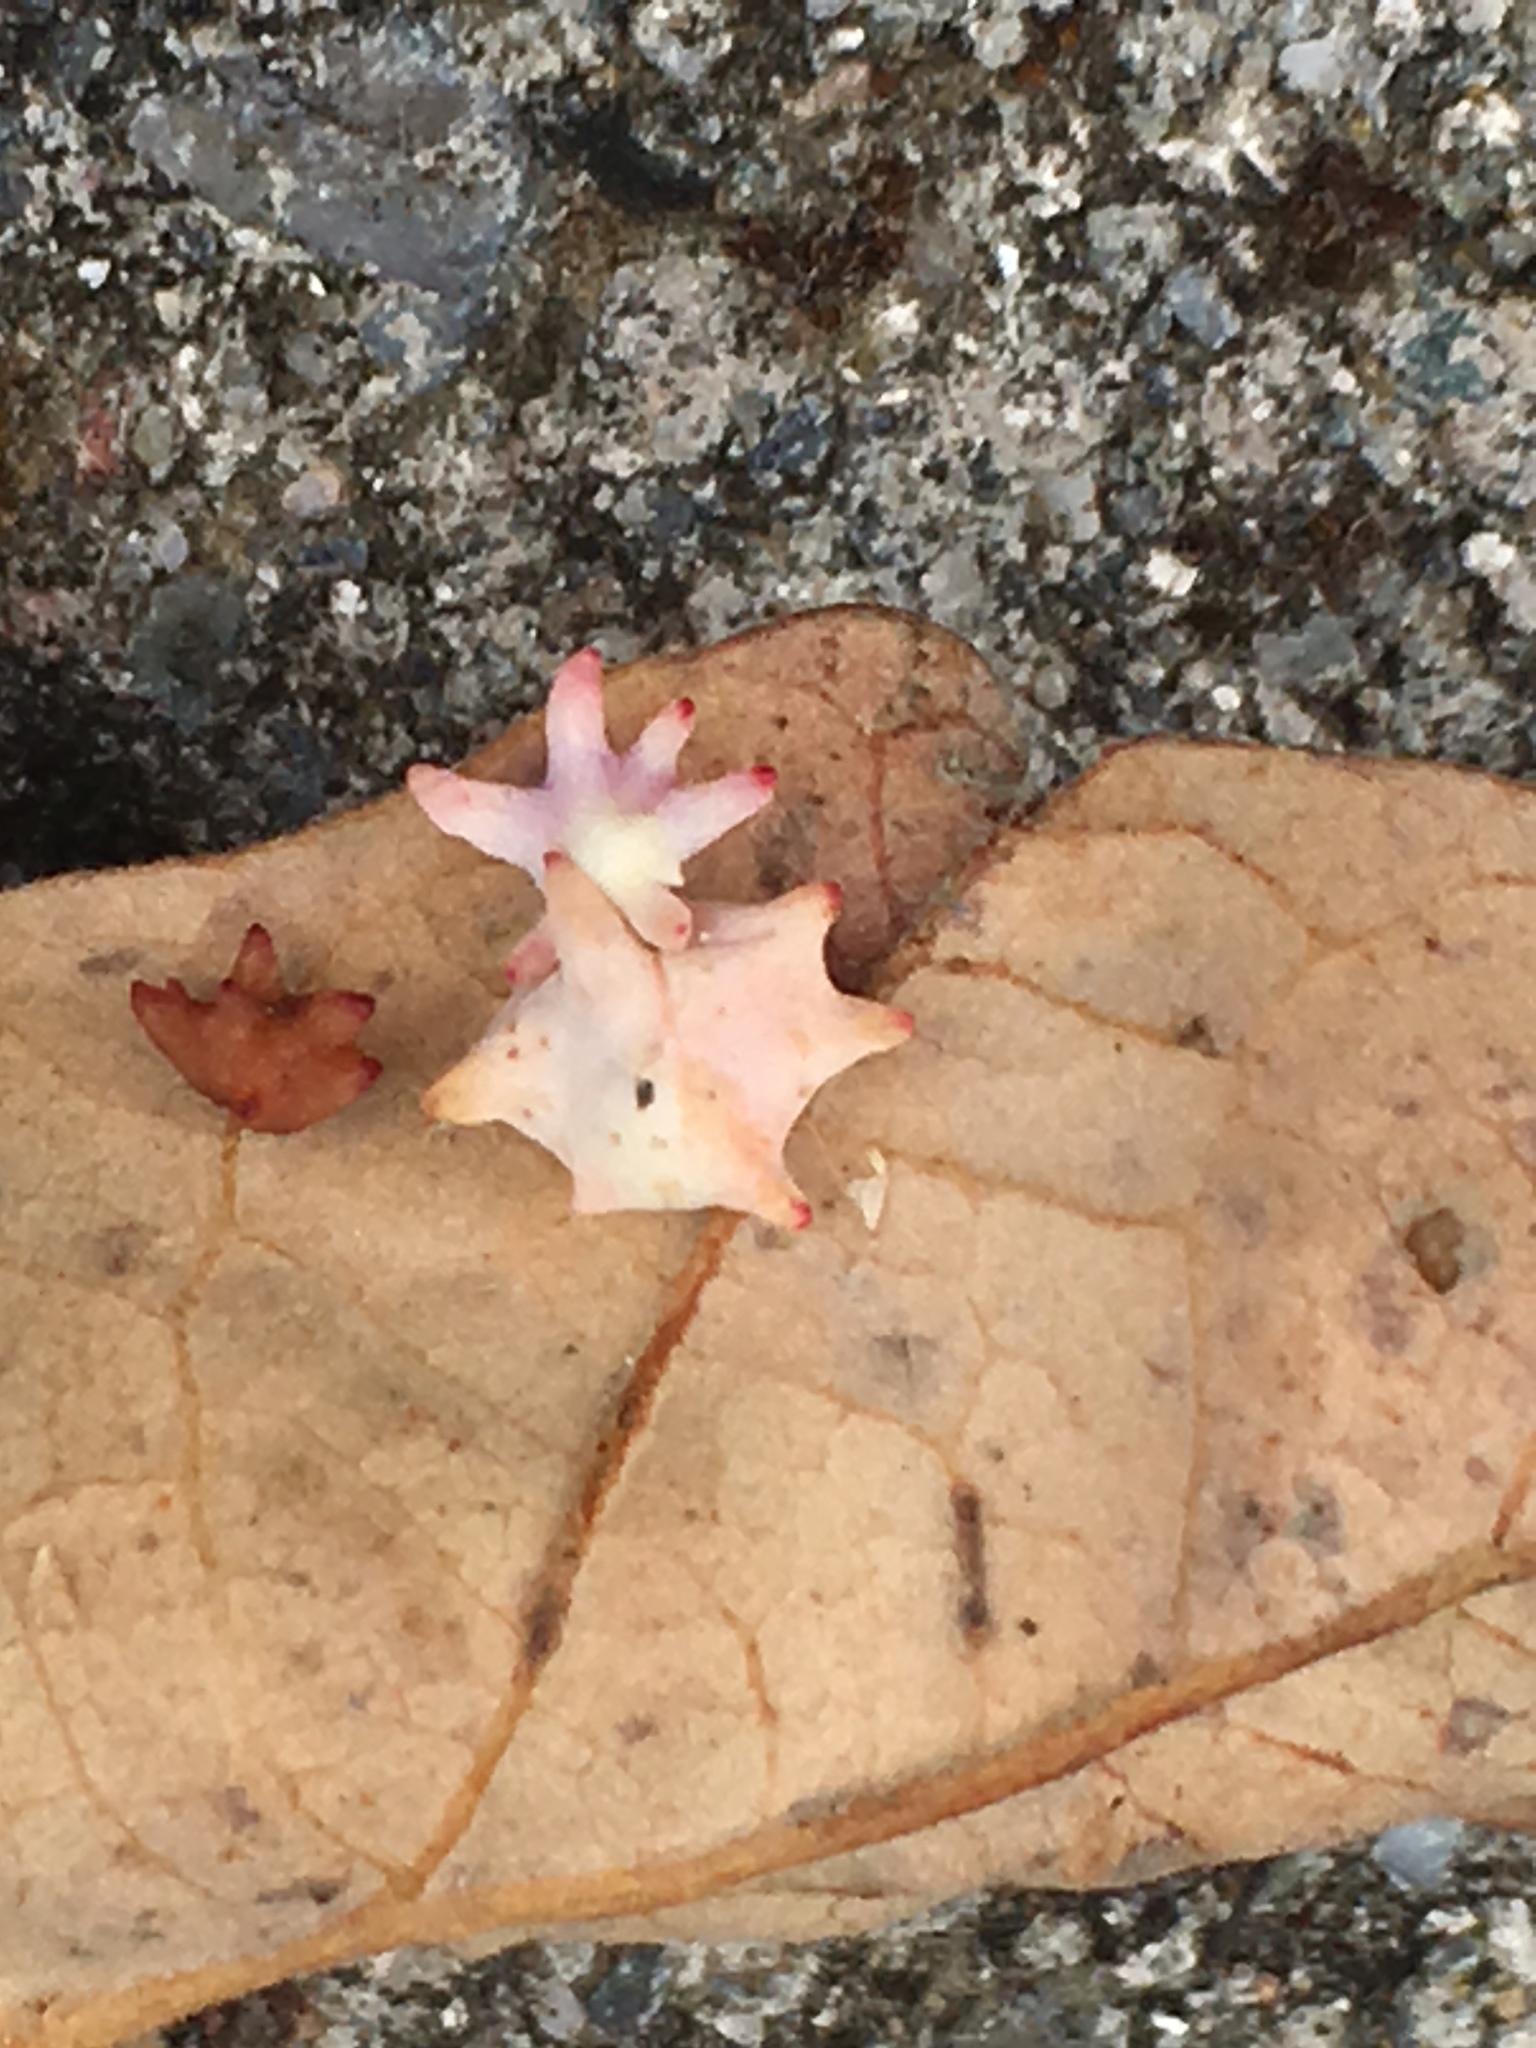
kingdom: Animalia
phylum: Arthropoda
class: Insecta
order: Hymenoptera
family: Cynipidae
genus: Cynips
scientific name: Cynips douglasi
